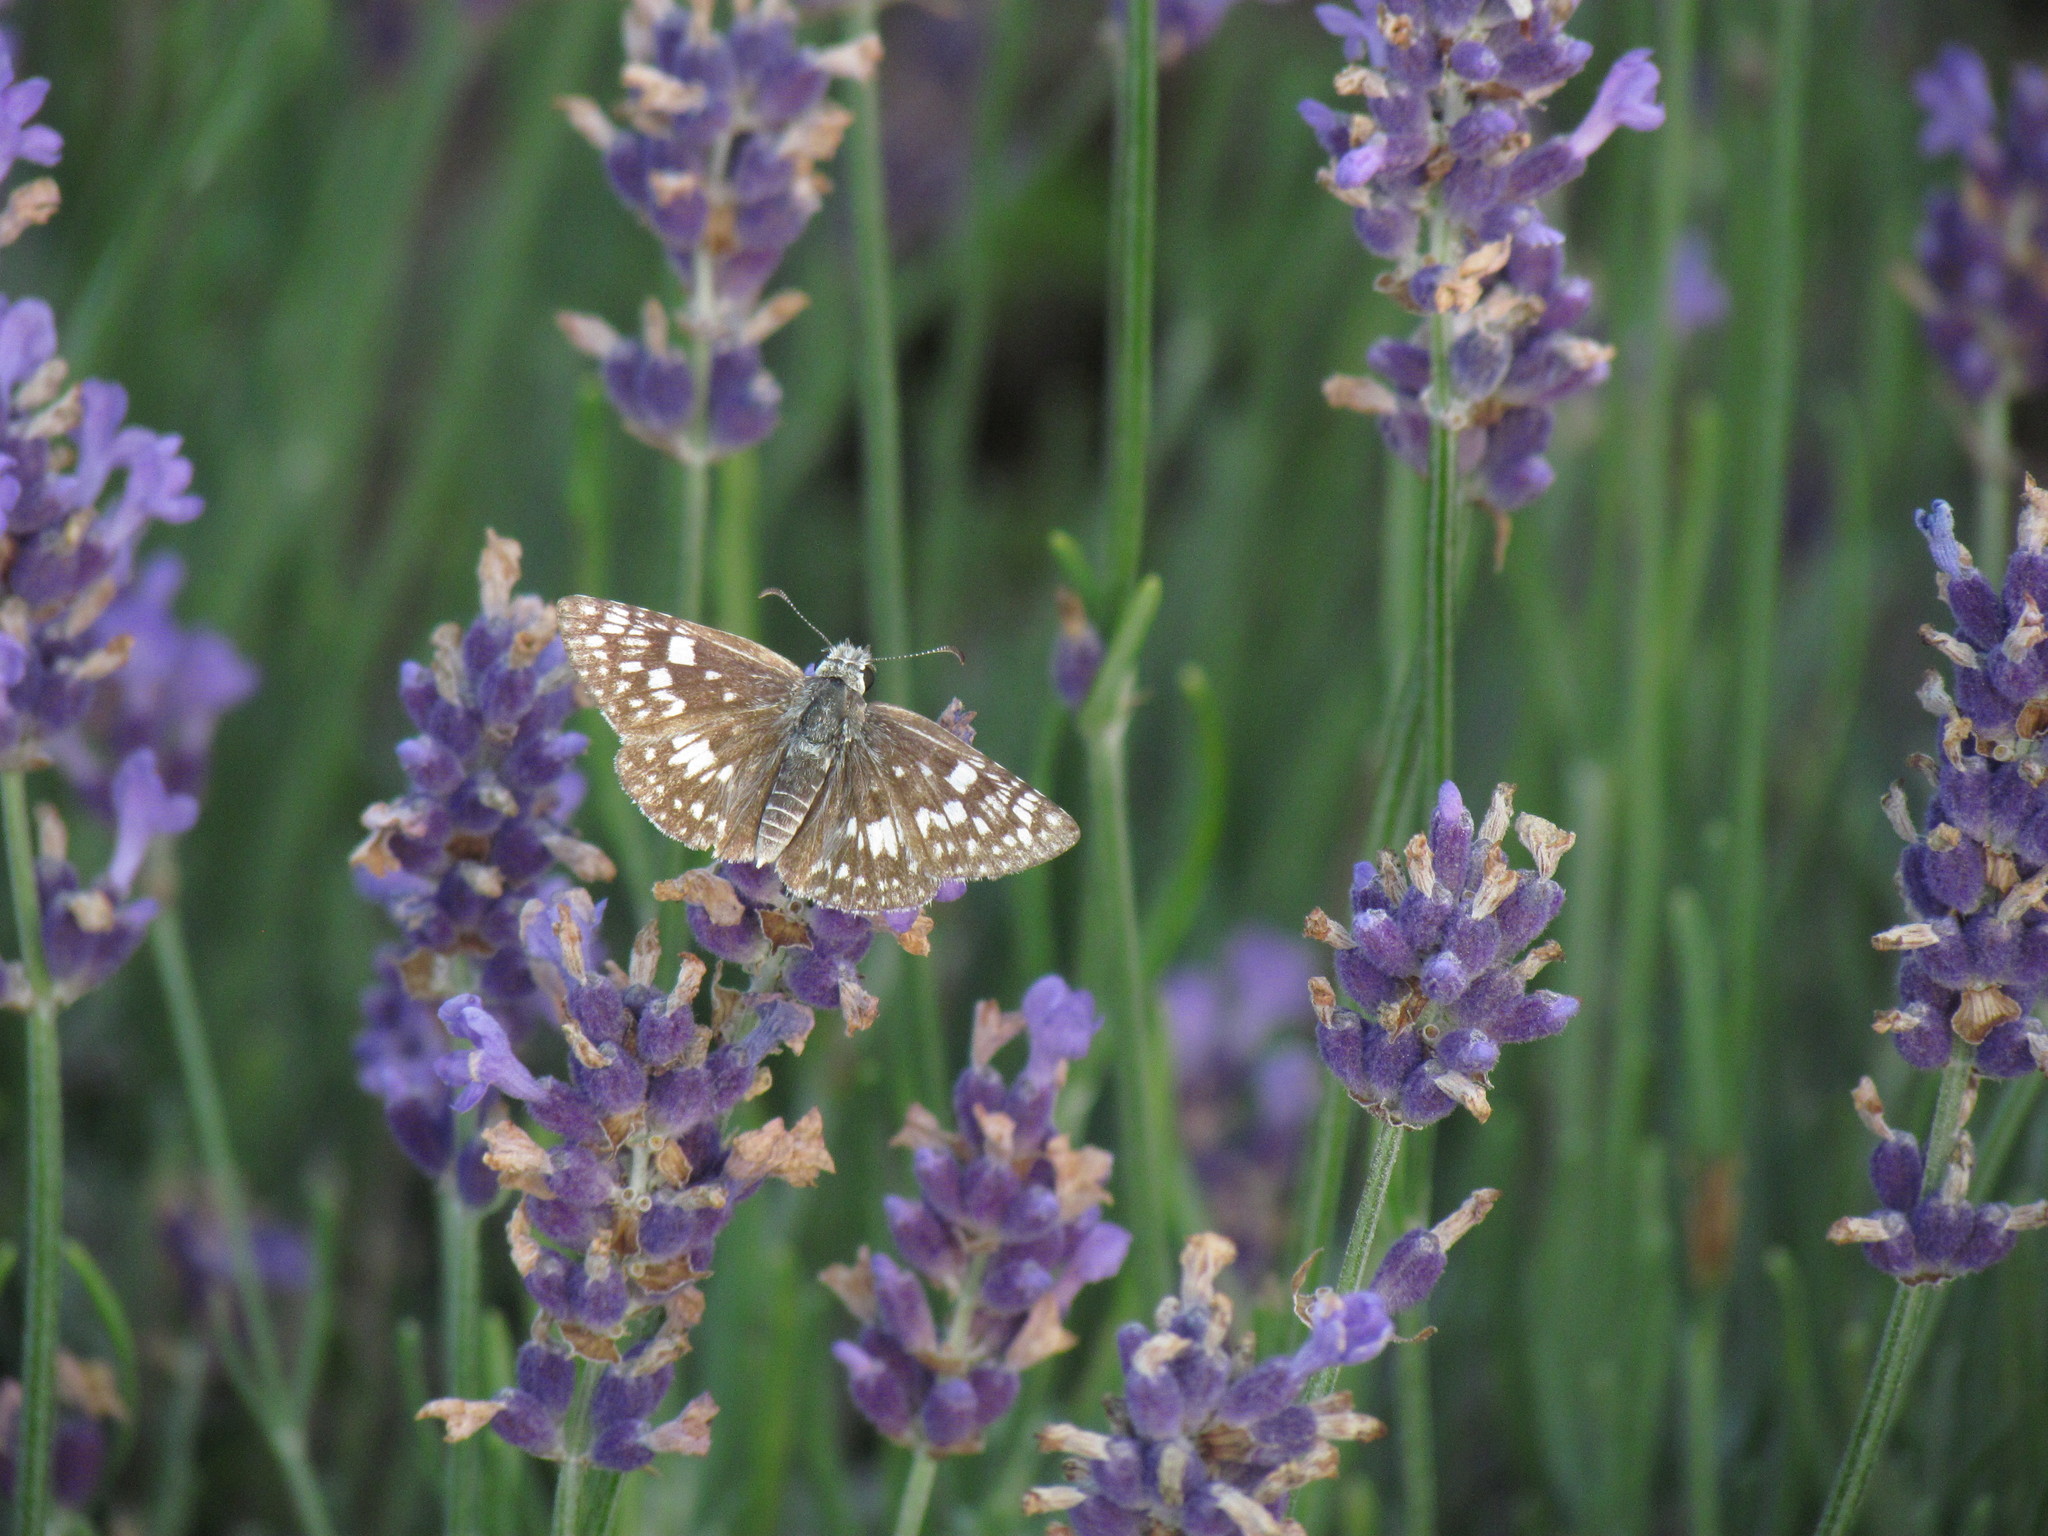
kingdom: Animalia
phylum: Arthropoda
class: Insecta
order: Lepidoptera
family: Hesperiidae
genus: Burnsius
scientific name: Burnsius communis
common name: Common checkered-skipper
